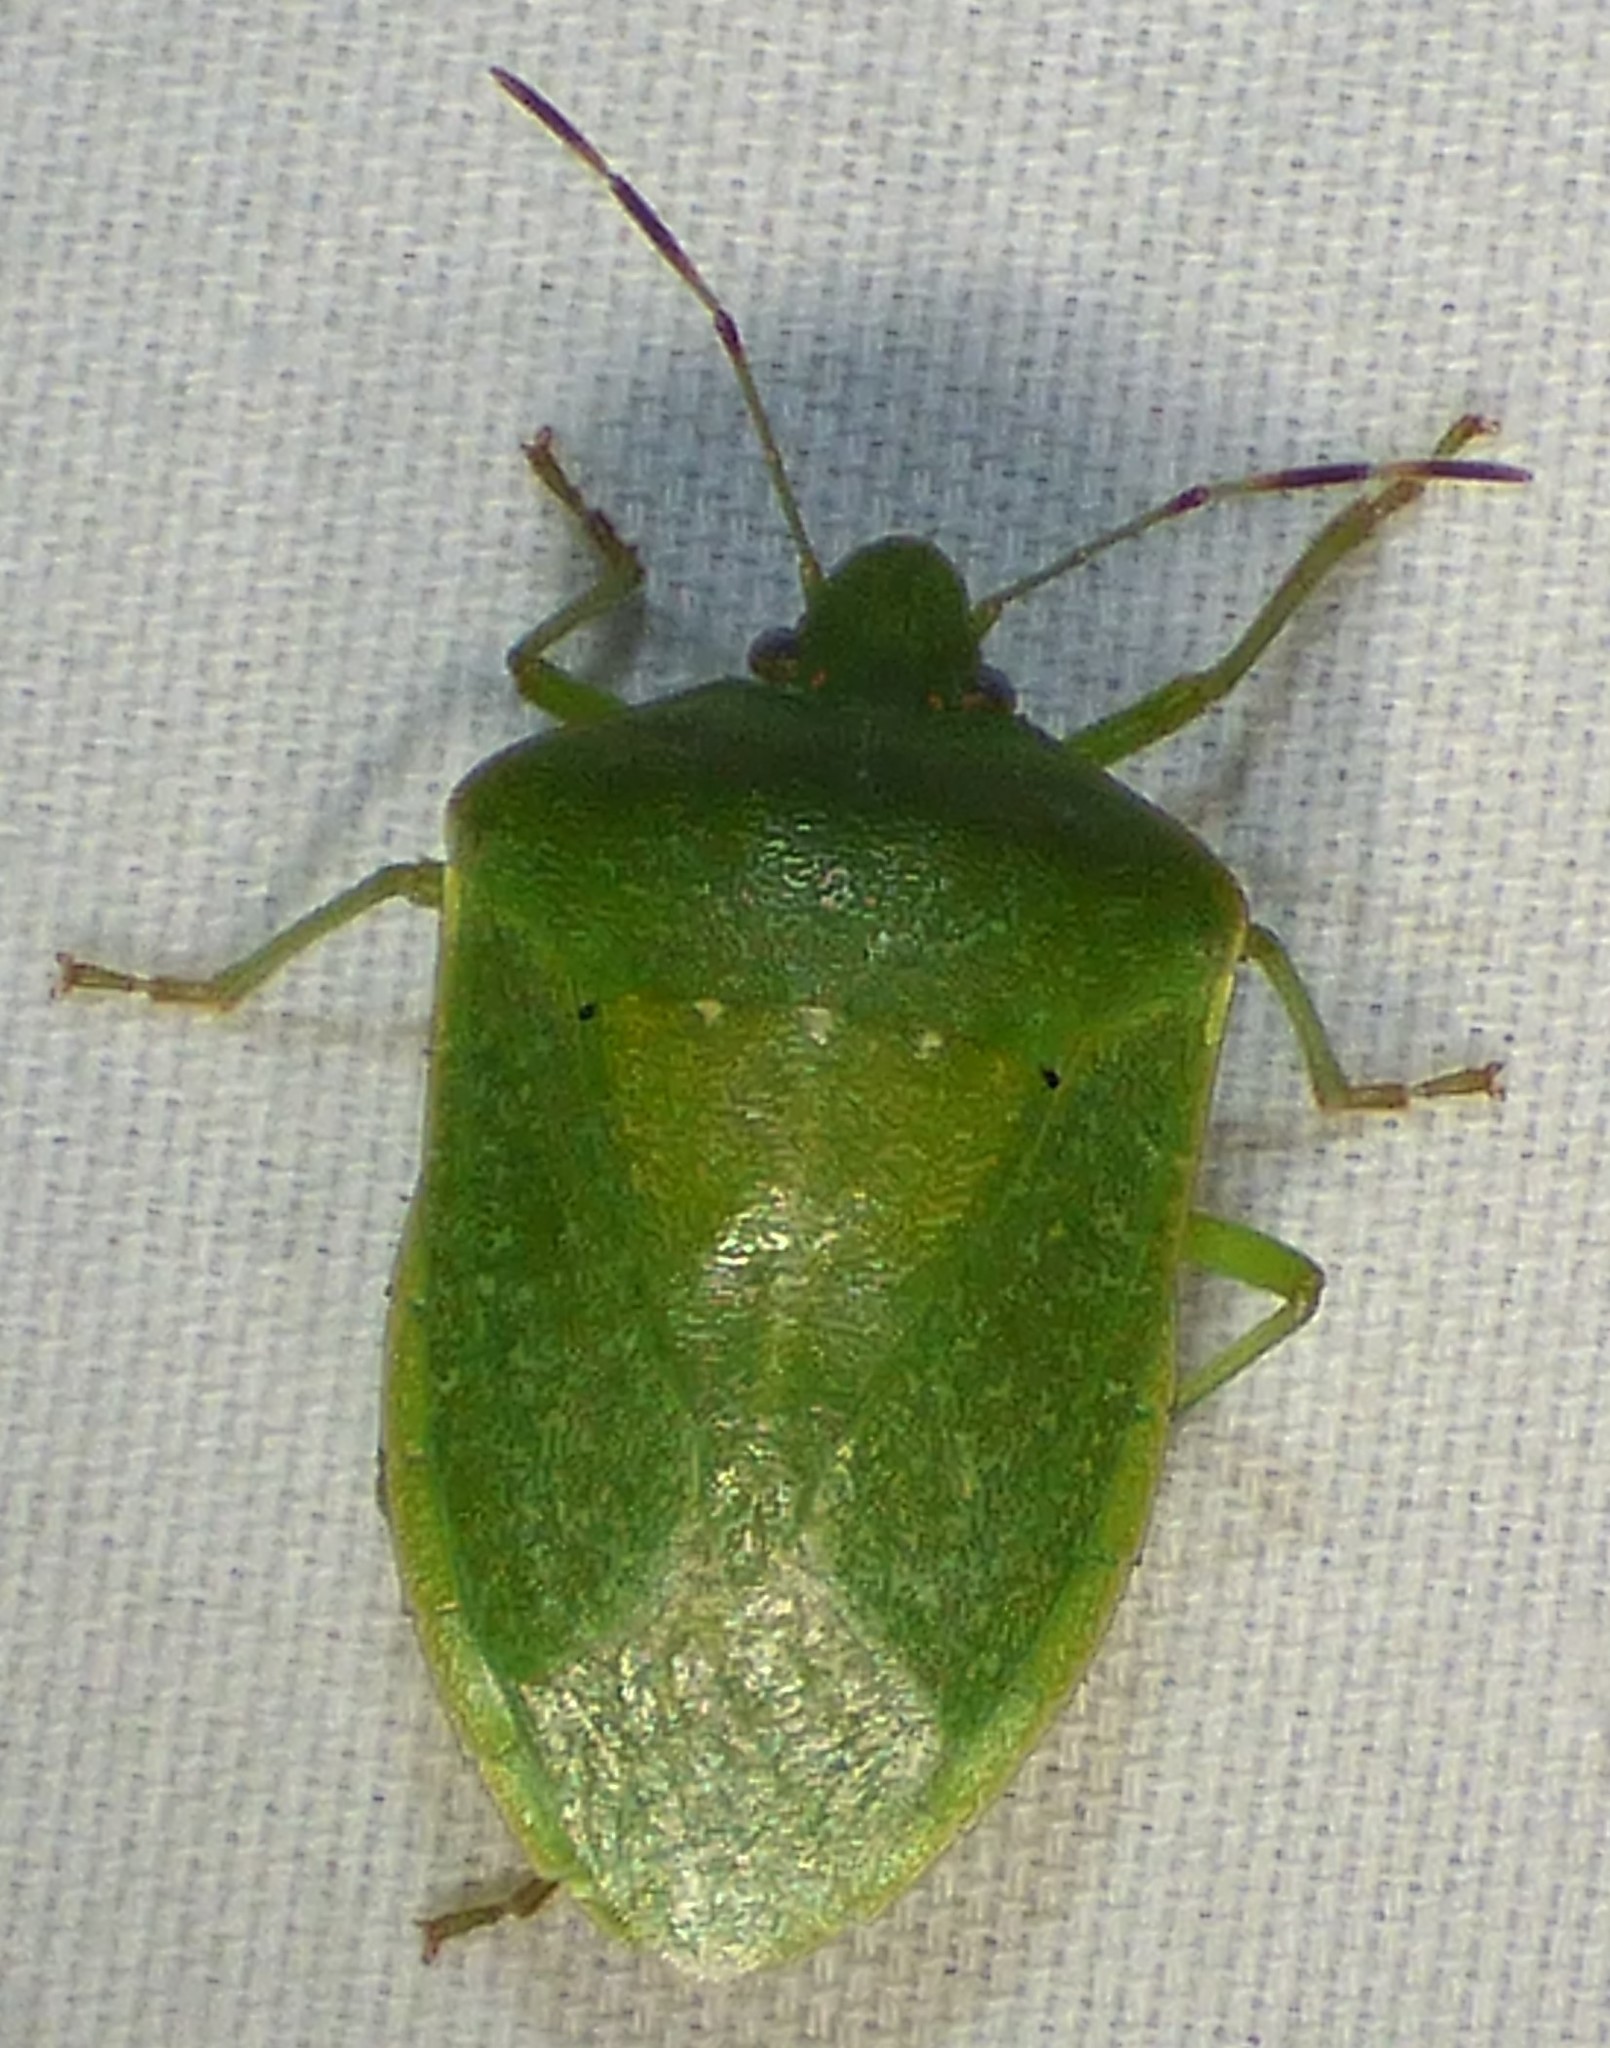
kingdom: Animalia
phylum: Arthropoda
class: Insecta
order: Hemiptera
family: Pentatomidae
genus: Nezara
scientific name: Nezara viridula
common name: Southern green stink bug
